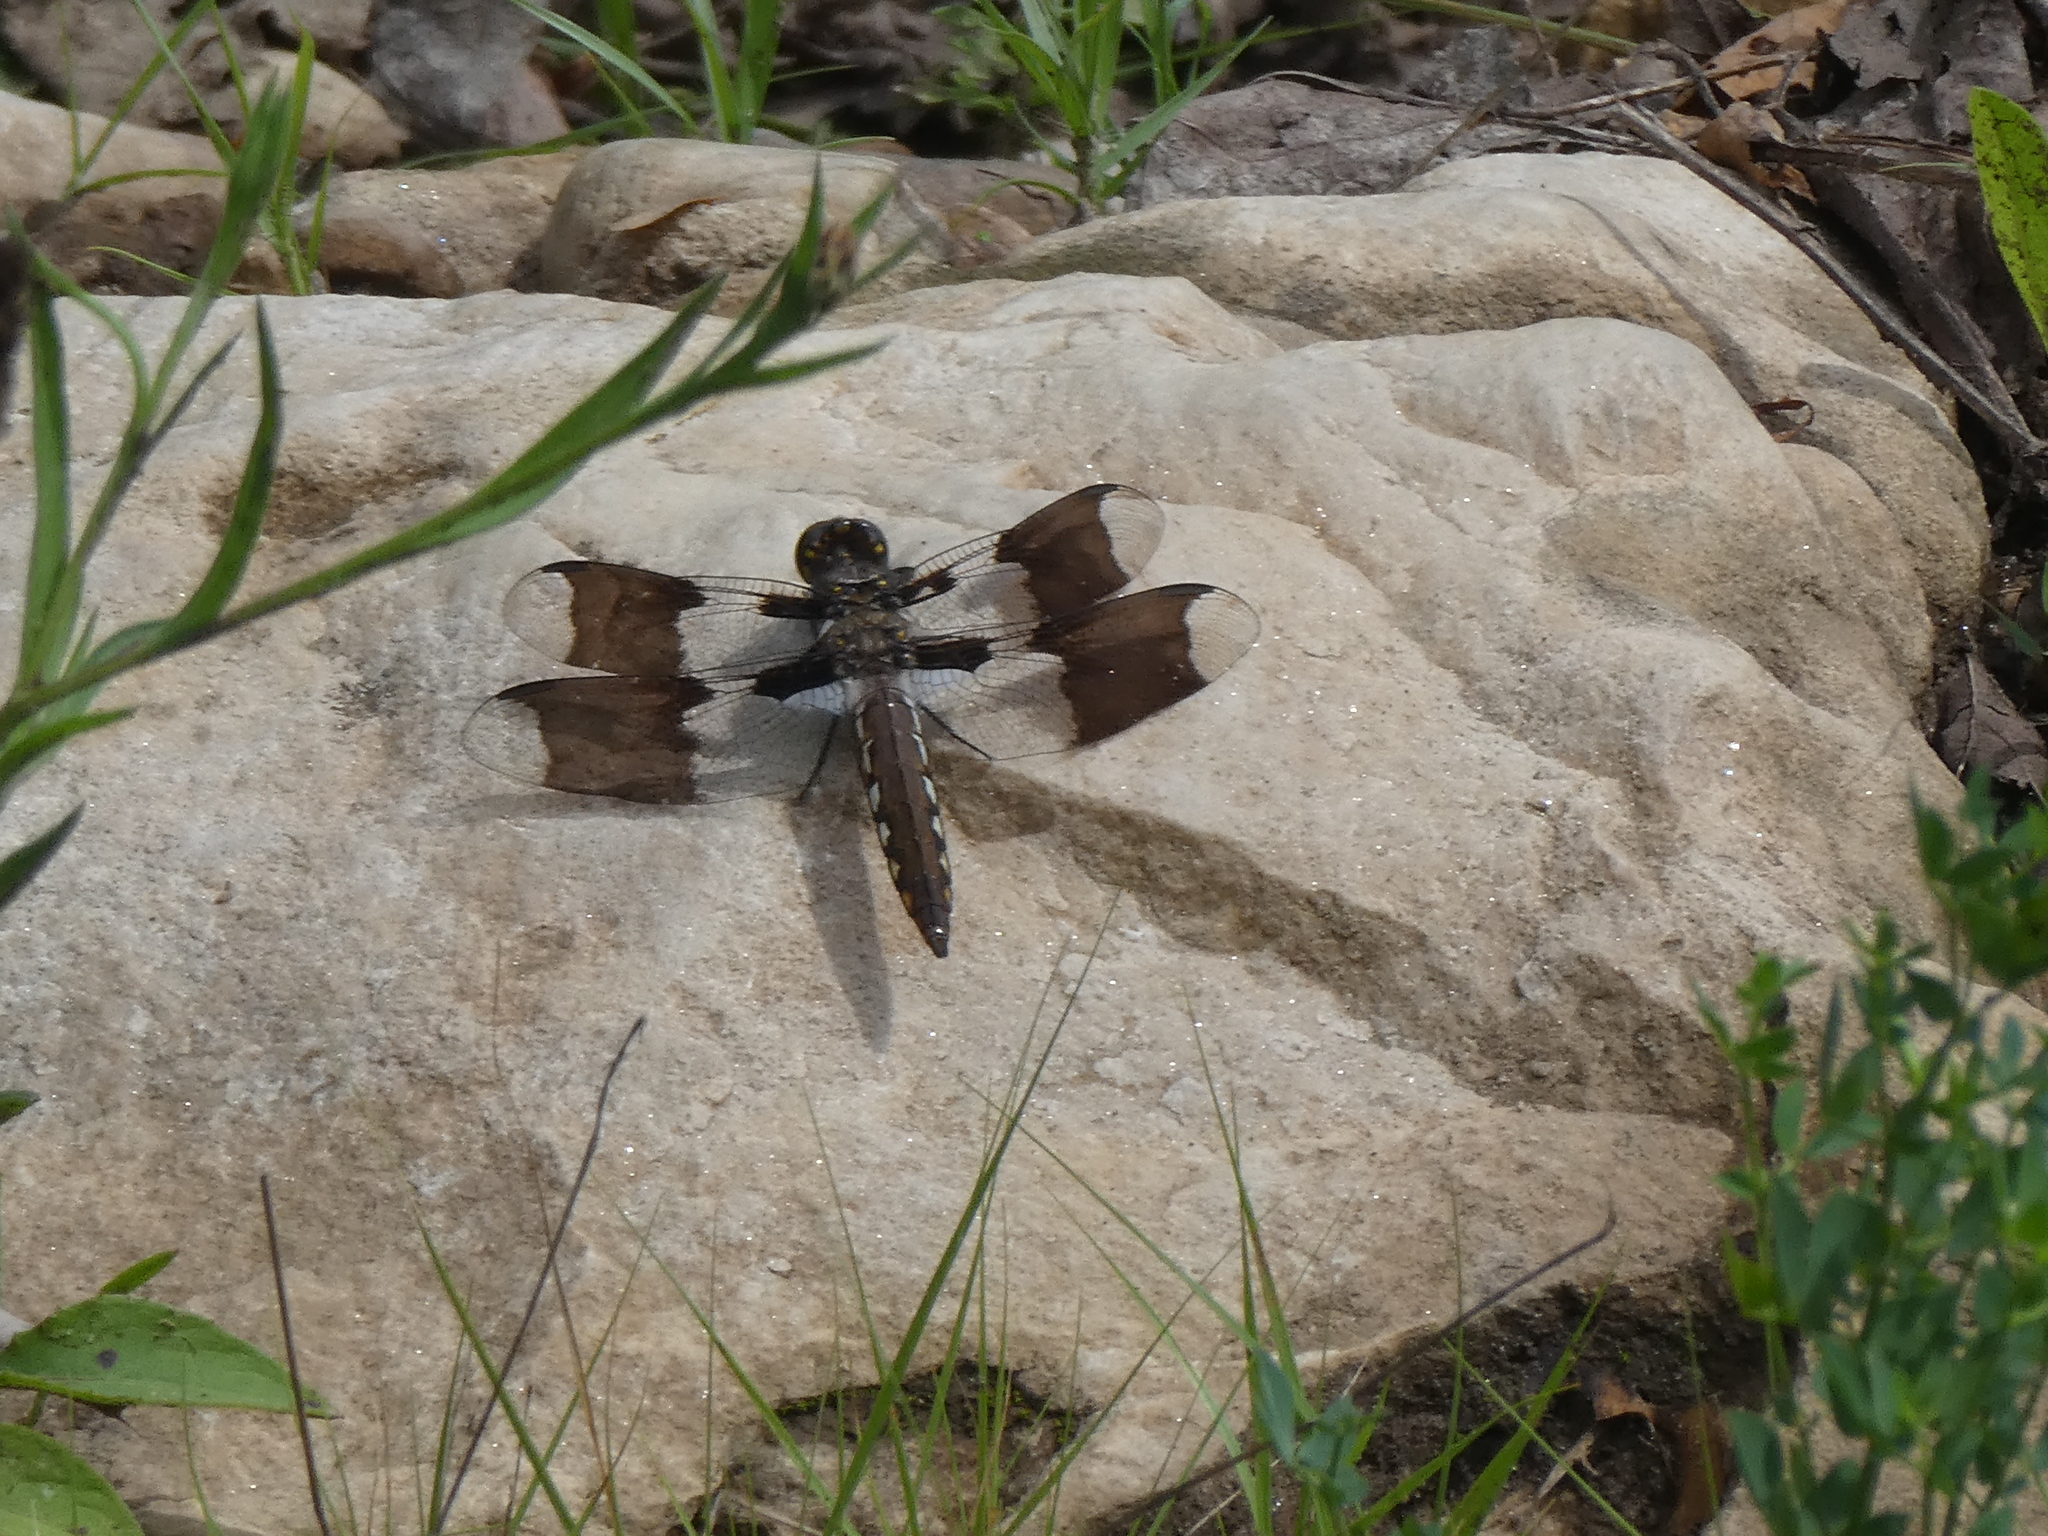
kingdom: Animalia
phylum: Arthropoda
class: Insecta
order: Odonata
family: Libellulidae
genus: Plathemis
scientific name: Plathemis lydia
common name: Common whitetail
